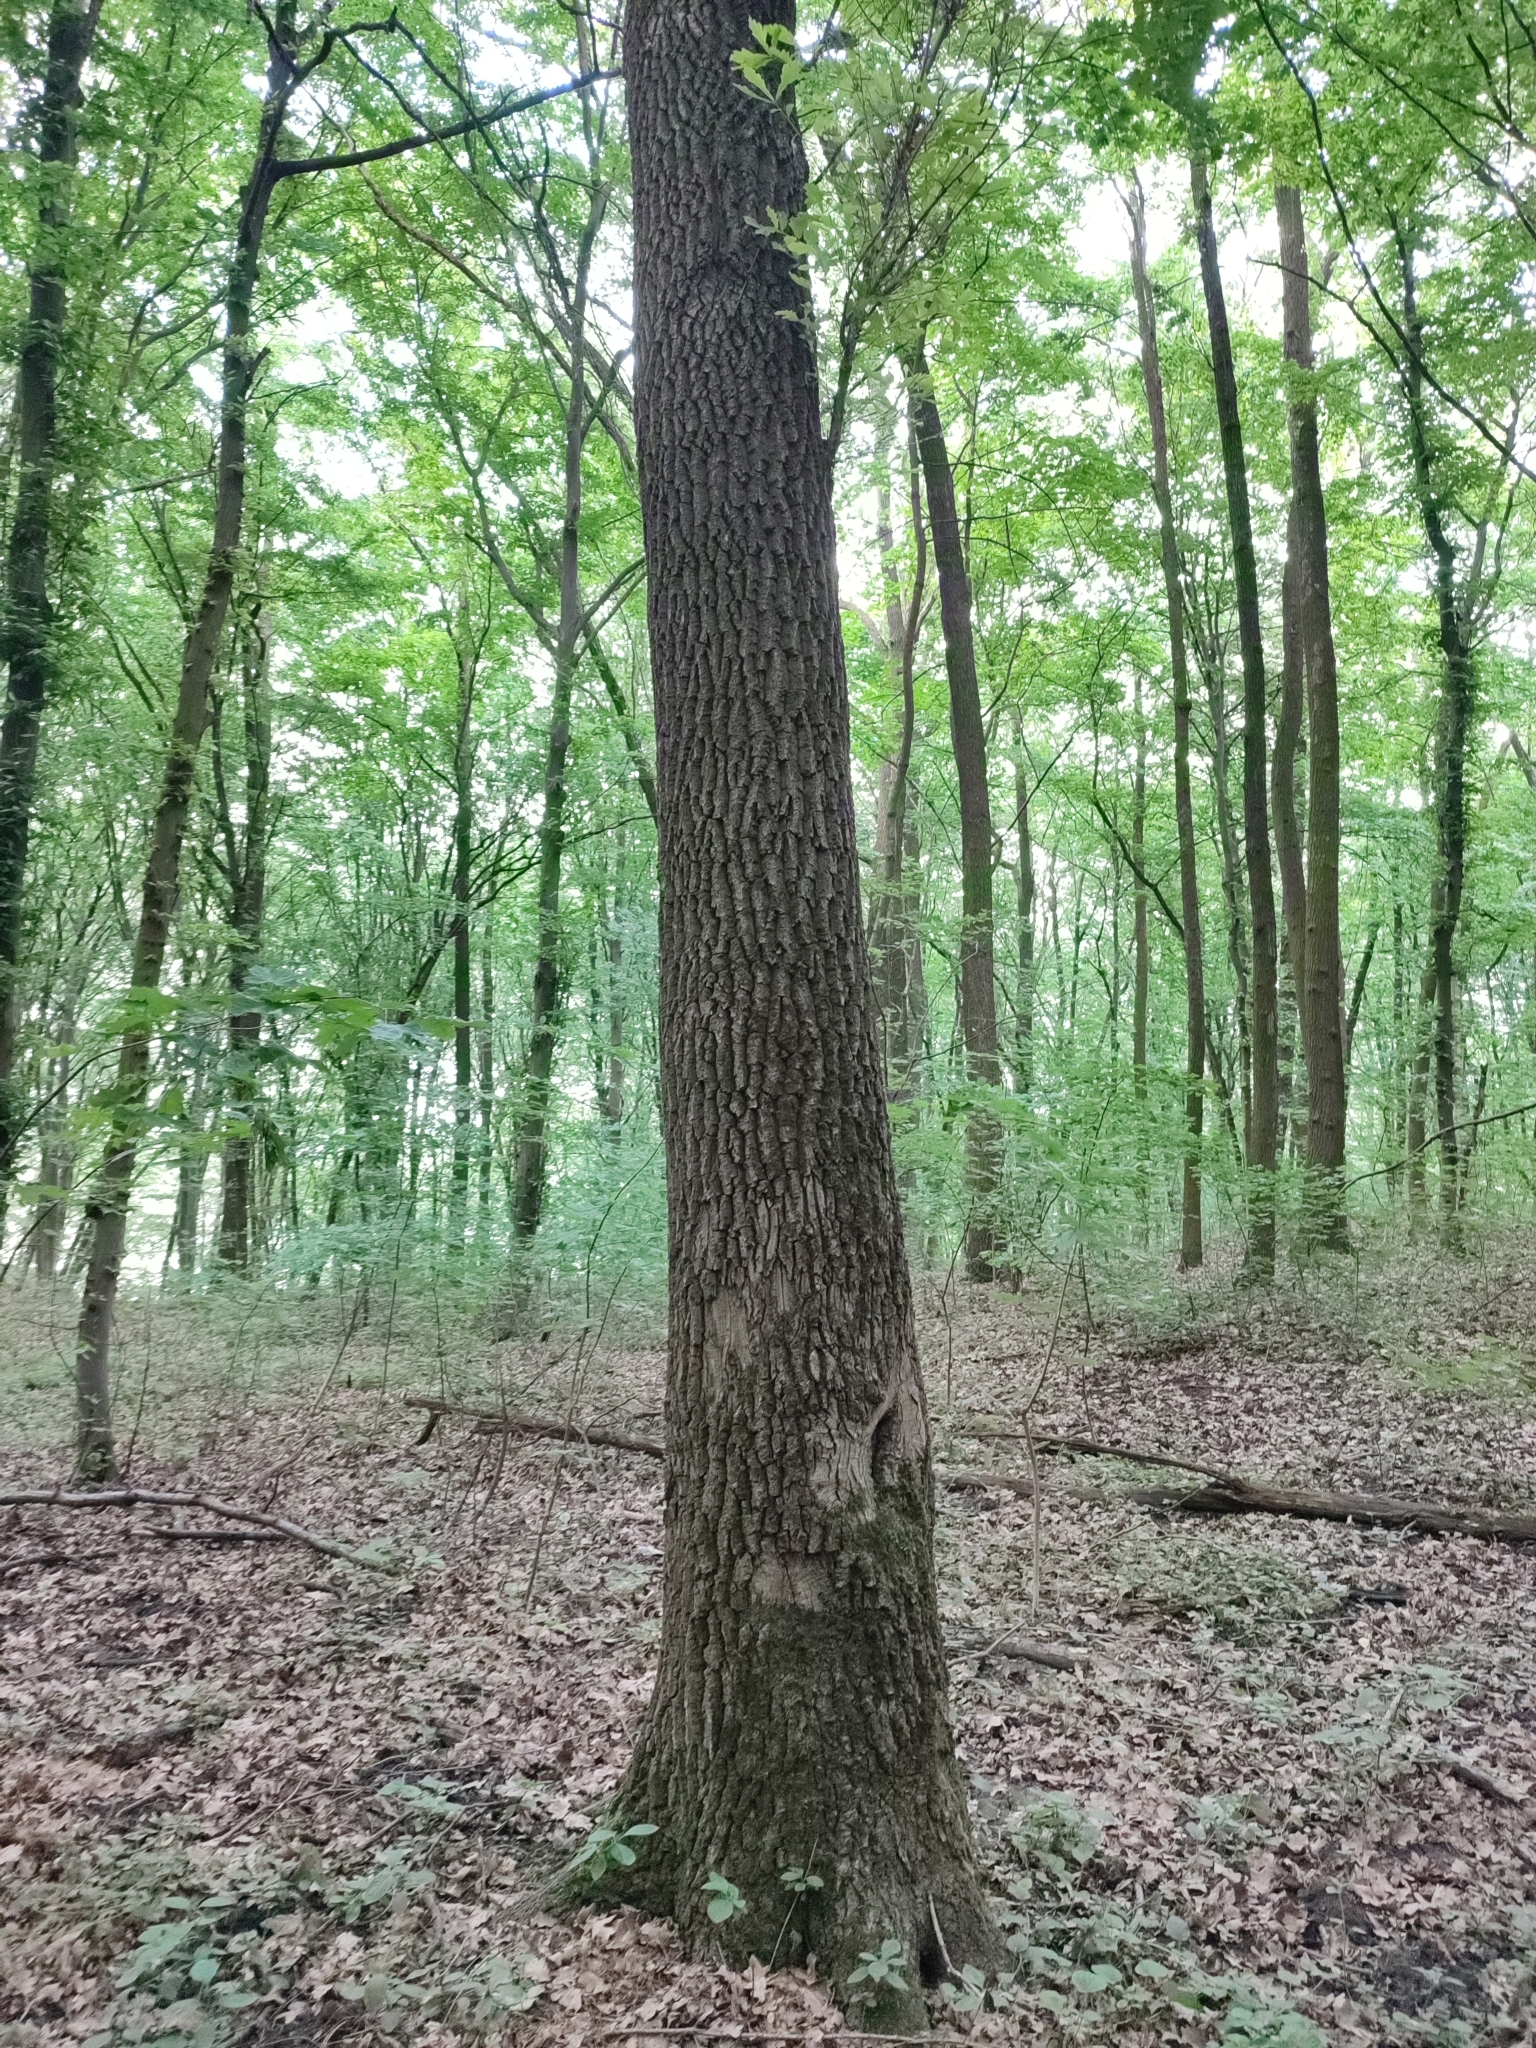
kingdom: Plantae
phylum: Tracheophyta
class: Magnoliopsida
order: Fagales
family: Fagaceae
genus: Quercus
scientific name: Quercus robur
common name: Pedunculate oak
